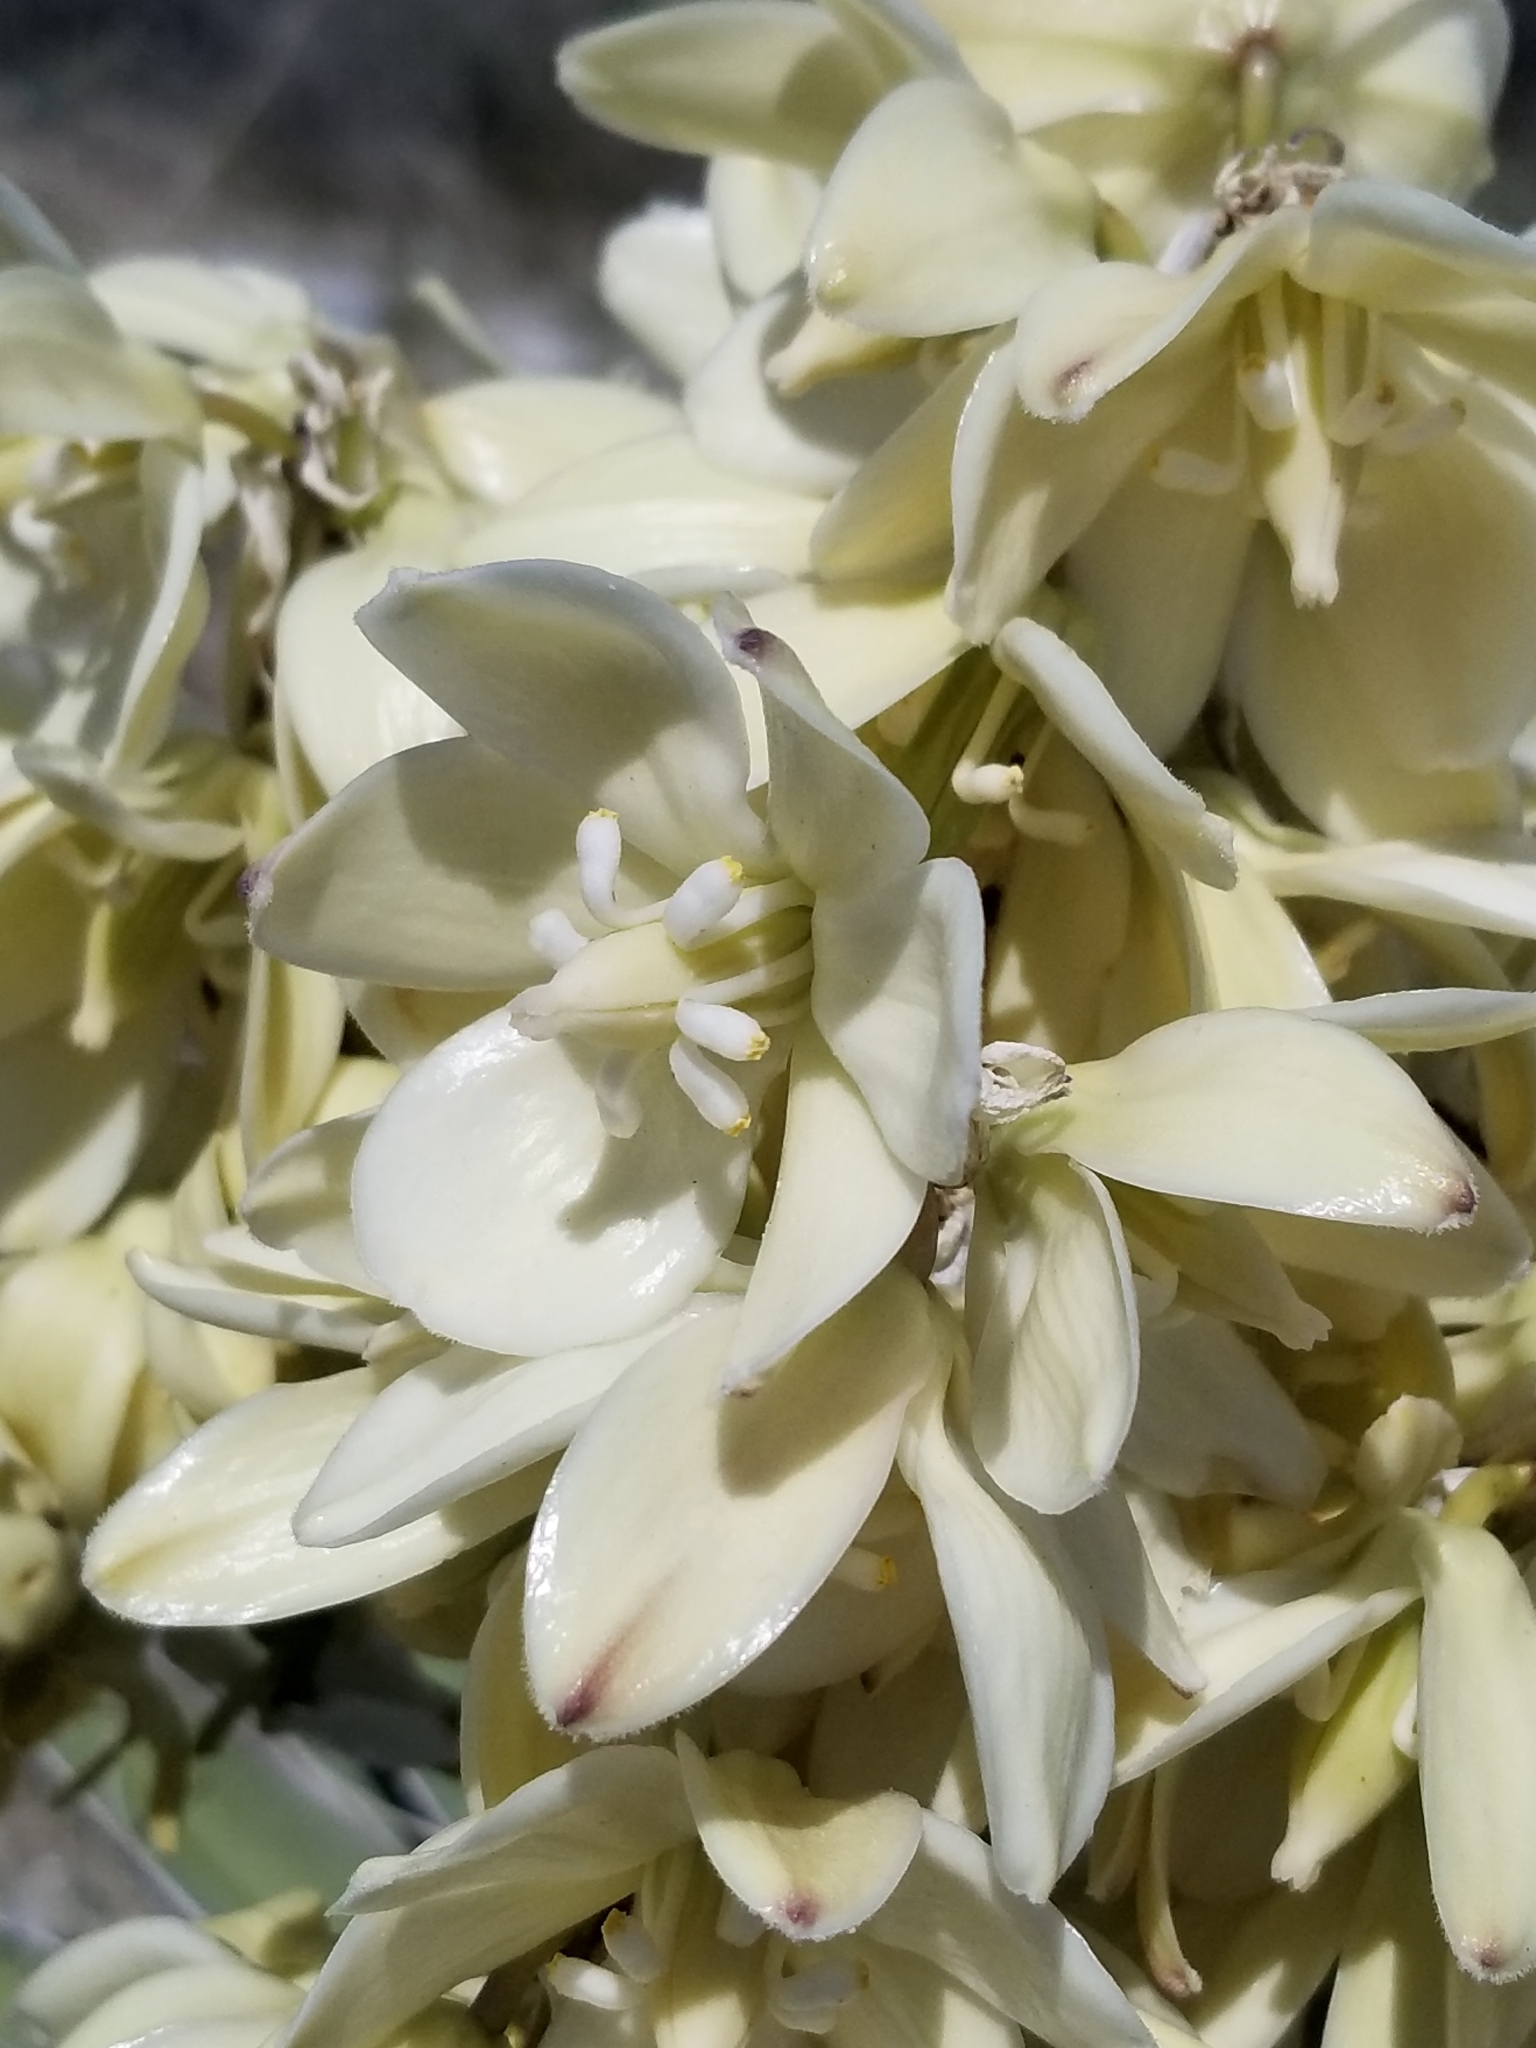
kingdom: Plantae
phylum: Tracheophyta
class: Liliopsida
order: Asparagales
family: Asparagaceae
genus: Yucca
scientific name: Yucca schidigera
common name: Mojave yucca
